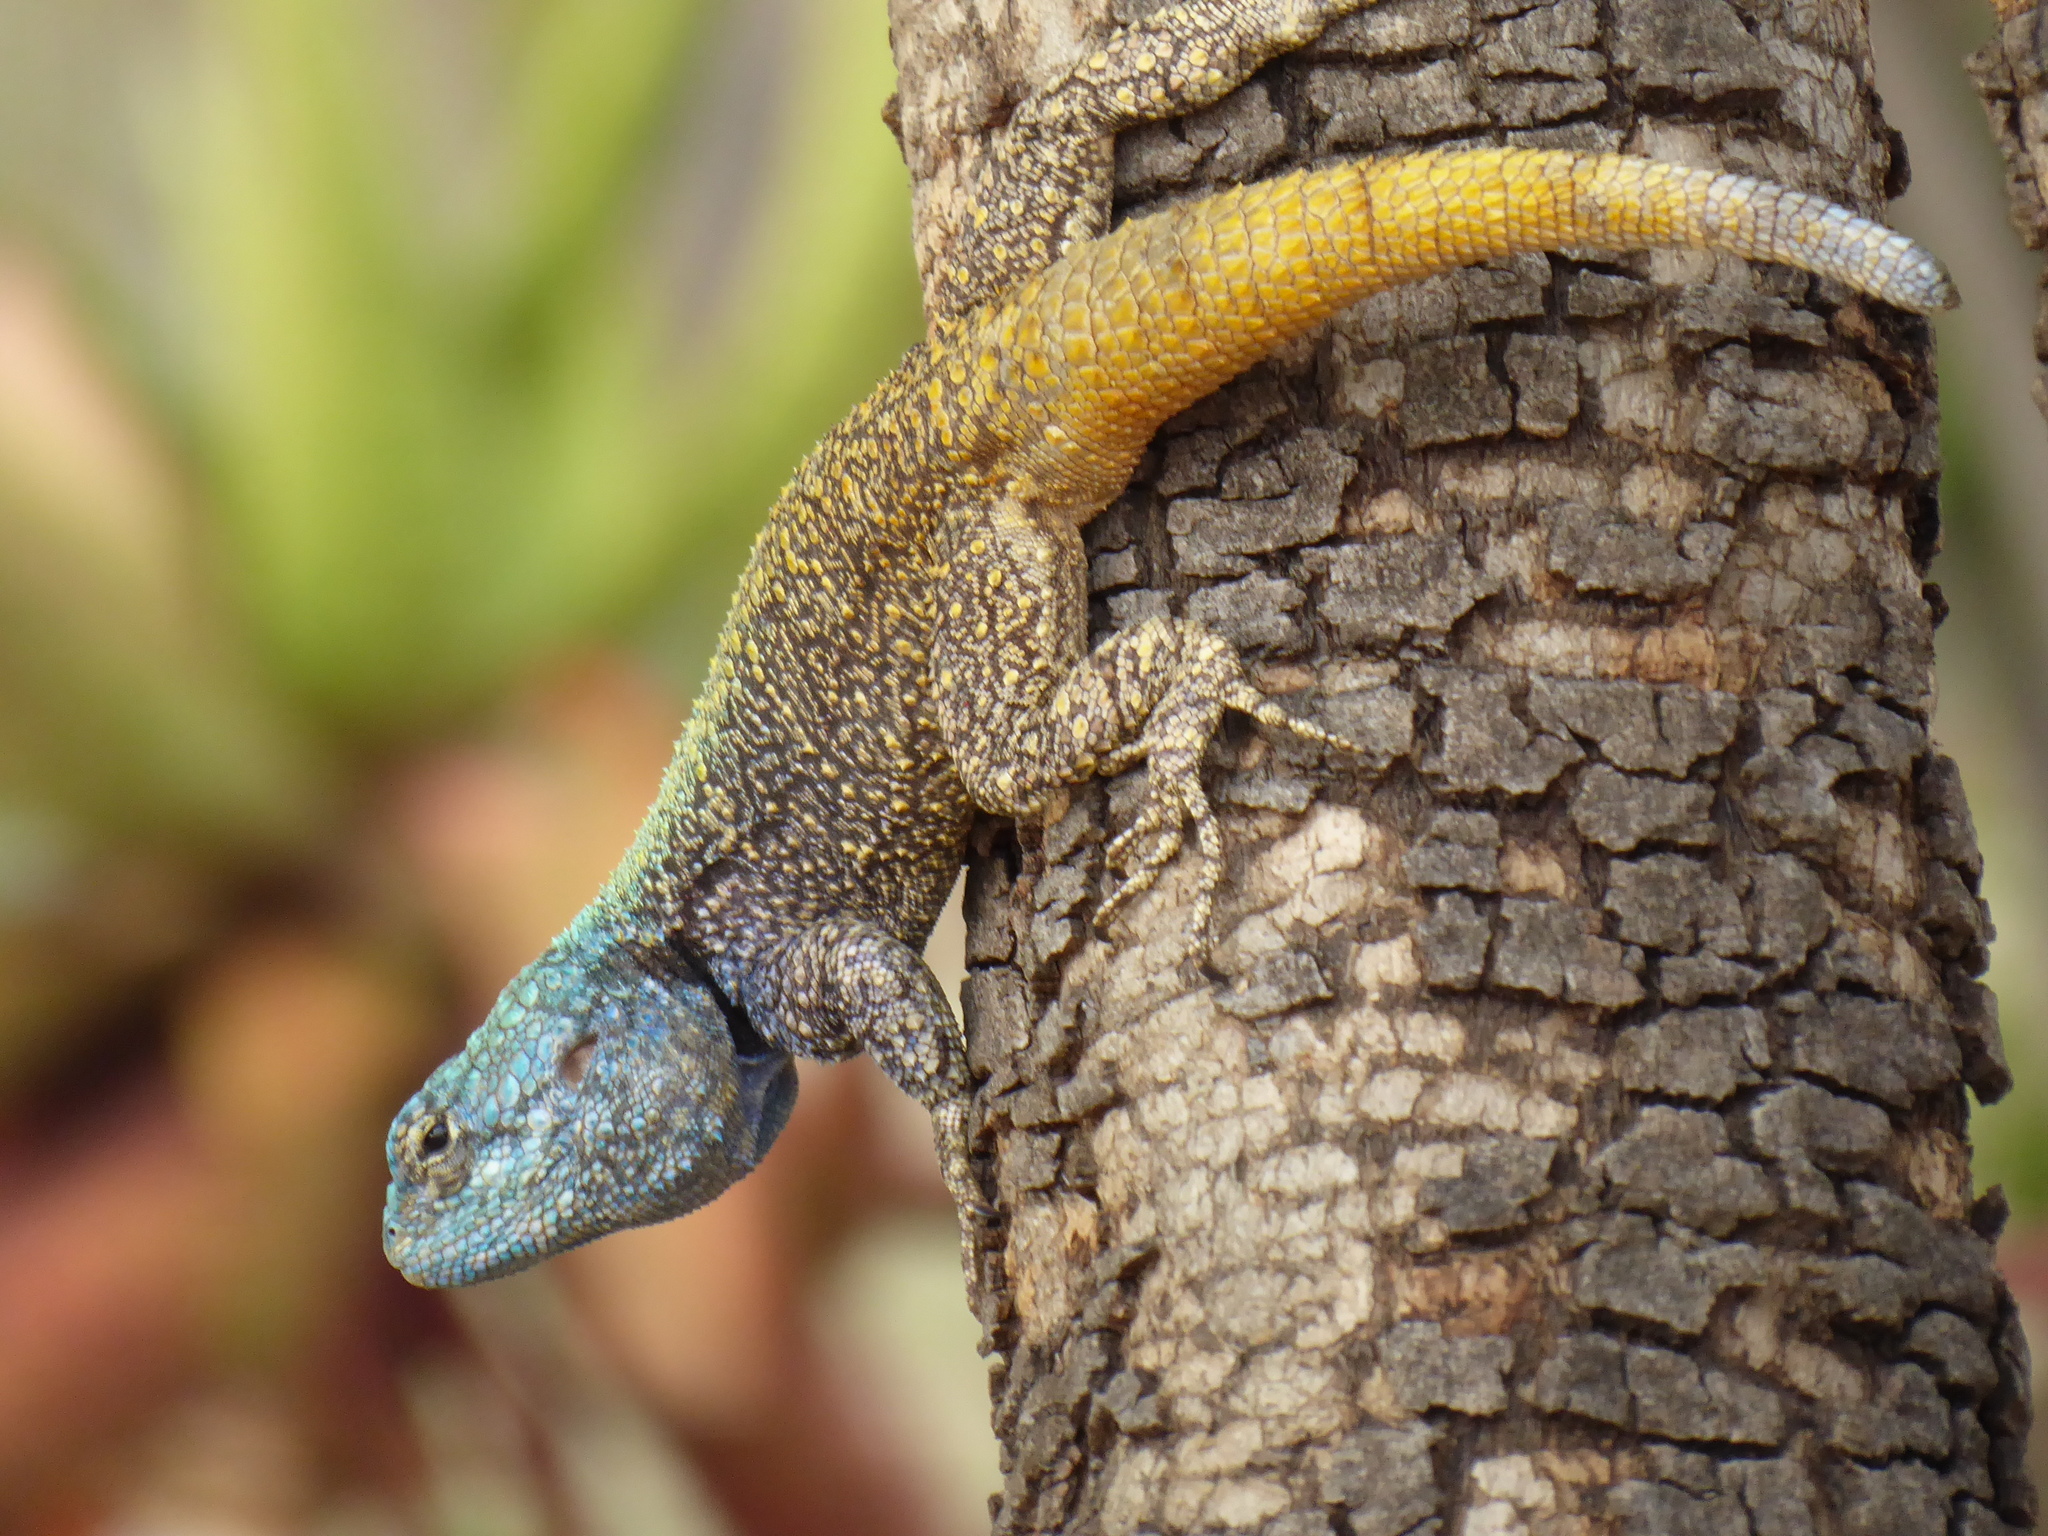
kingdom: Animalia
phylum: Chordata
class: Squamata
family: Agamidae
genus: Acanthocercus
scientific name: Acanthocercus atricollis
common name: Southern tree agama
